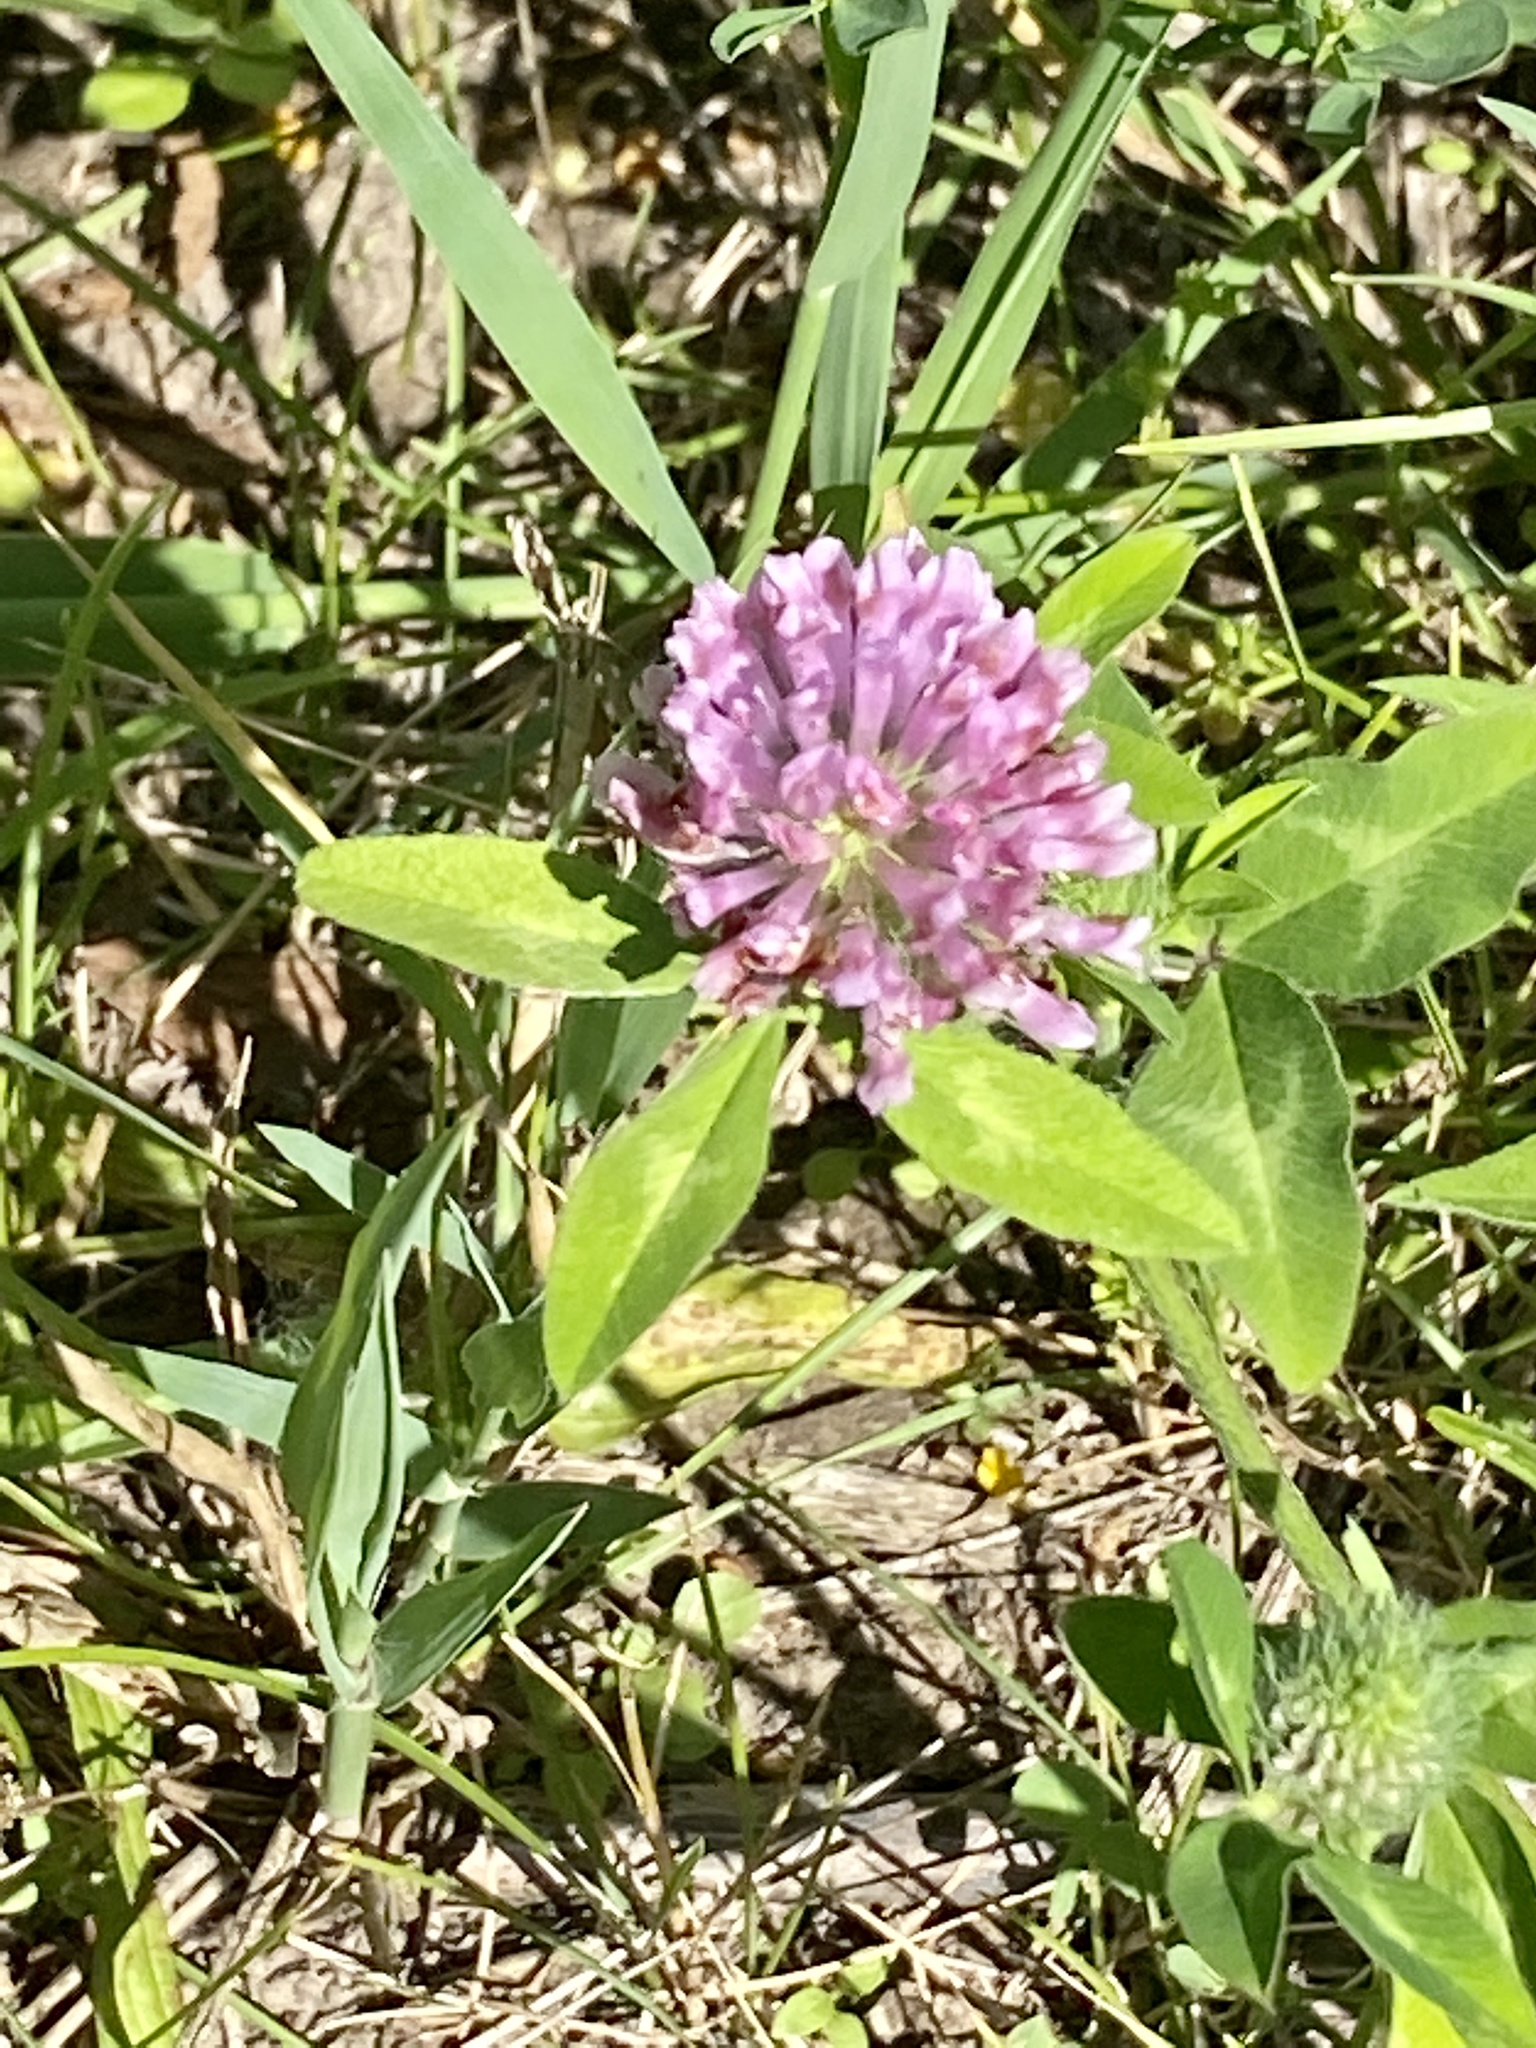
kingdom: Plantae
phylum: Tracheophyta
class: Magnoliopsida
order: Fabales
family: Fabaceae
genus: Trifolium
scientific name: Trifolium pratense
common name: Red clover
